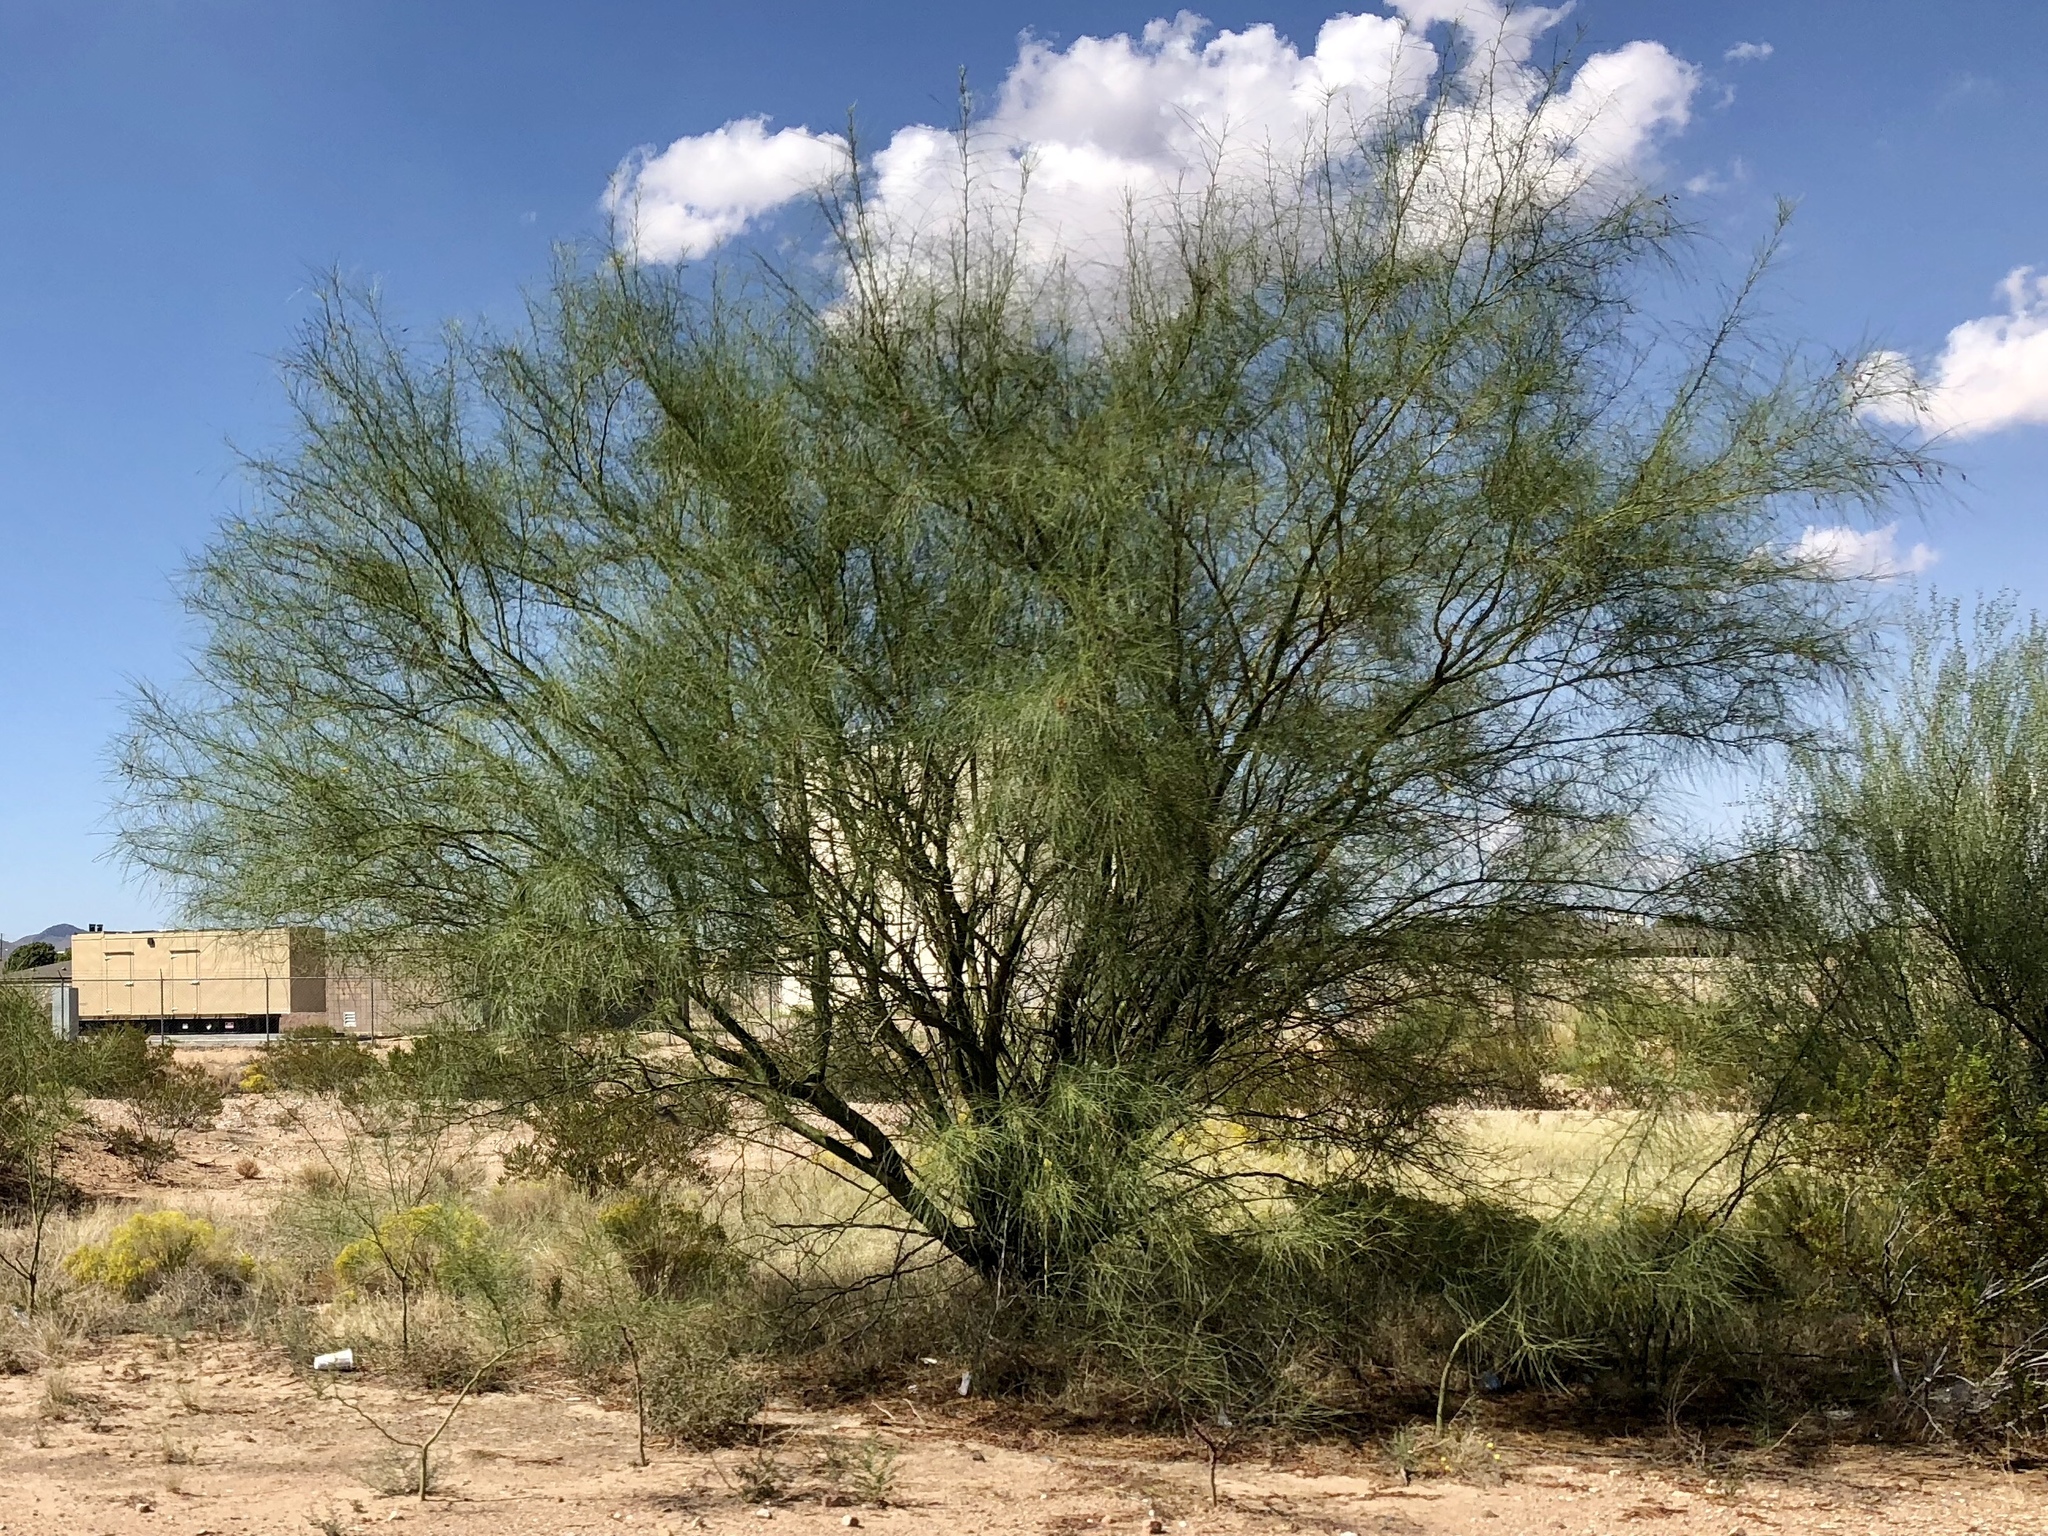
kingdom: Plantae
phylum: Tracheophyta
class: Magnoliopsida
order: Fabales
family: Fabaceae
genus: Parkinsonia
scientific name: Parkinsonia aculeata
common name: Jerusalem thorn
